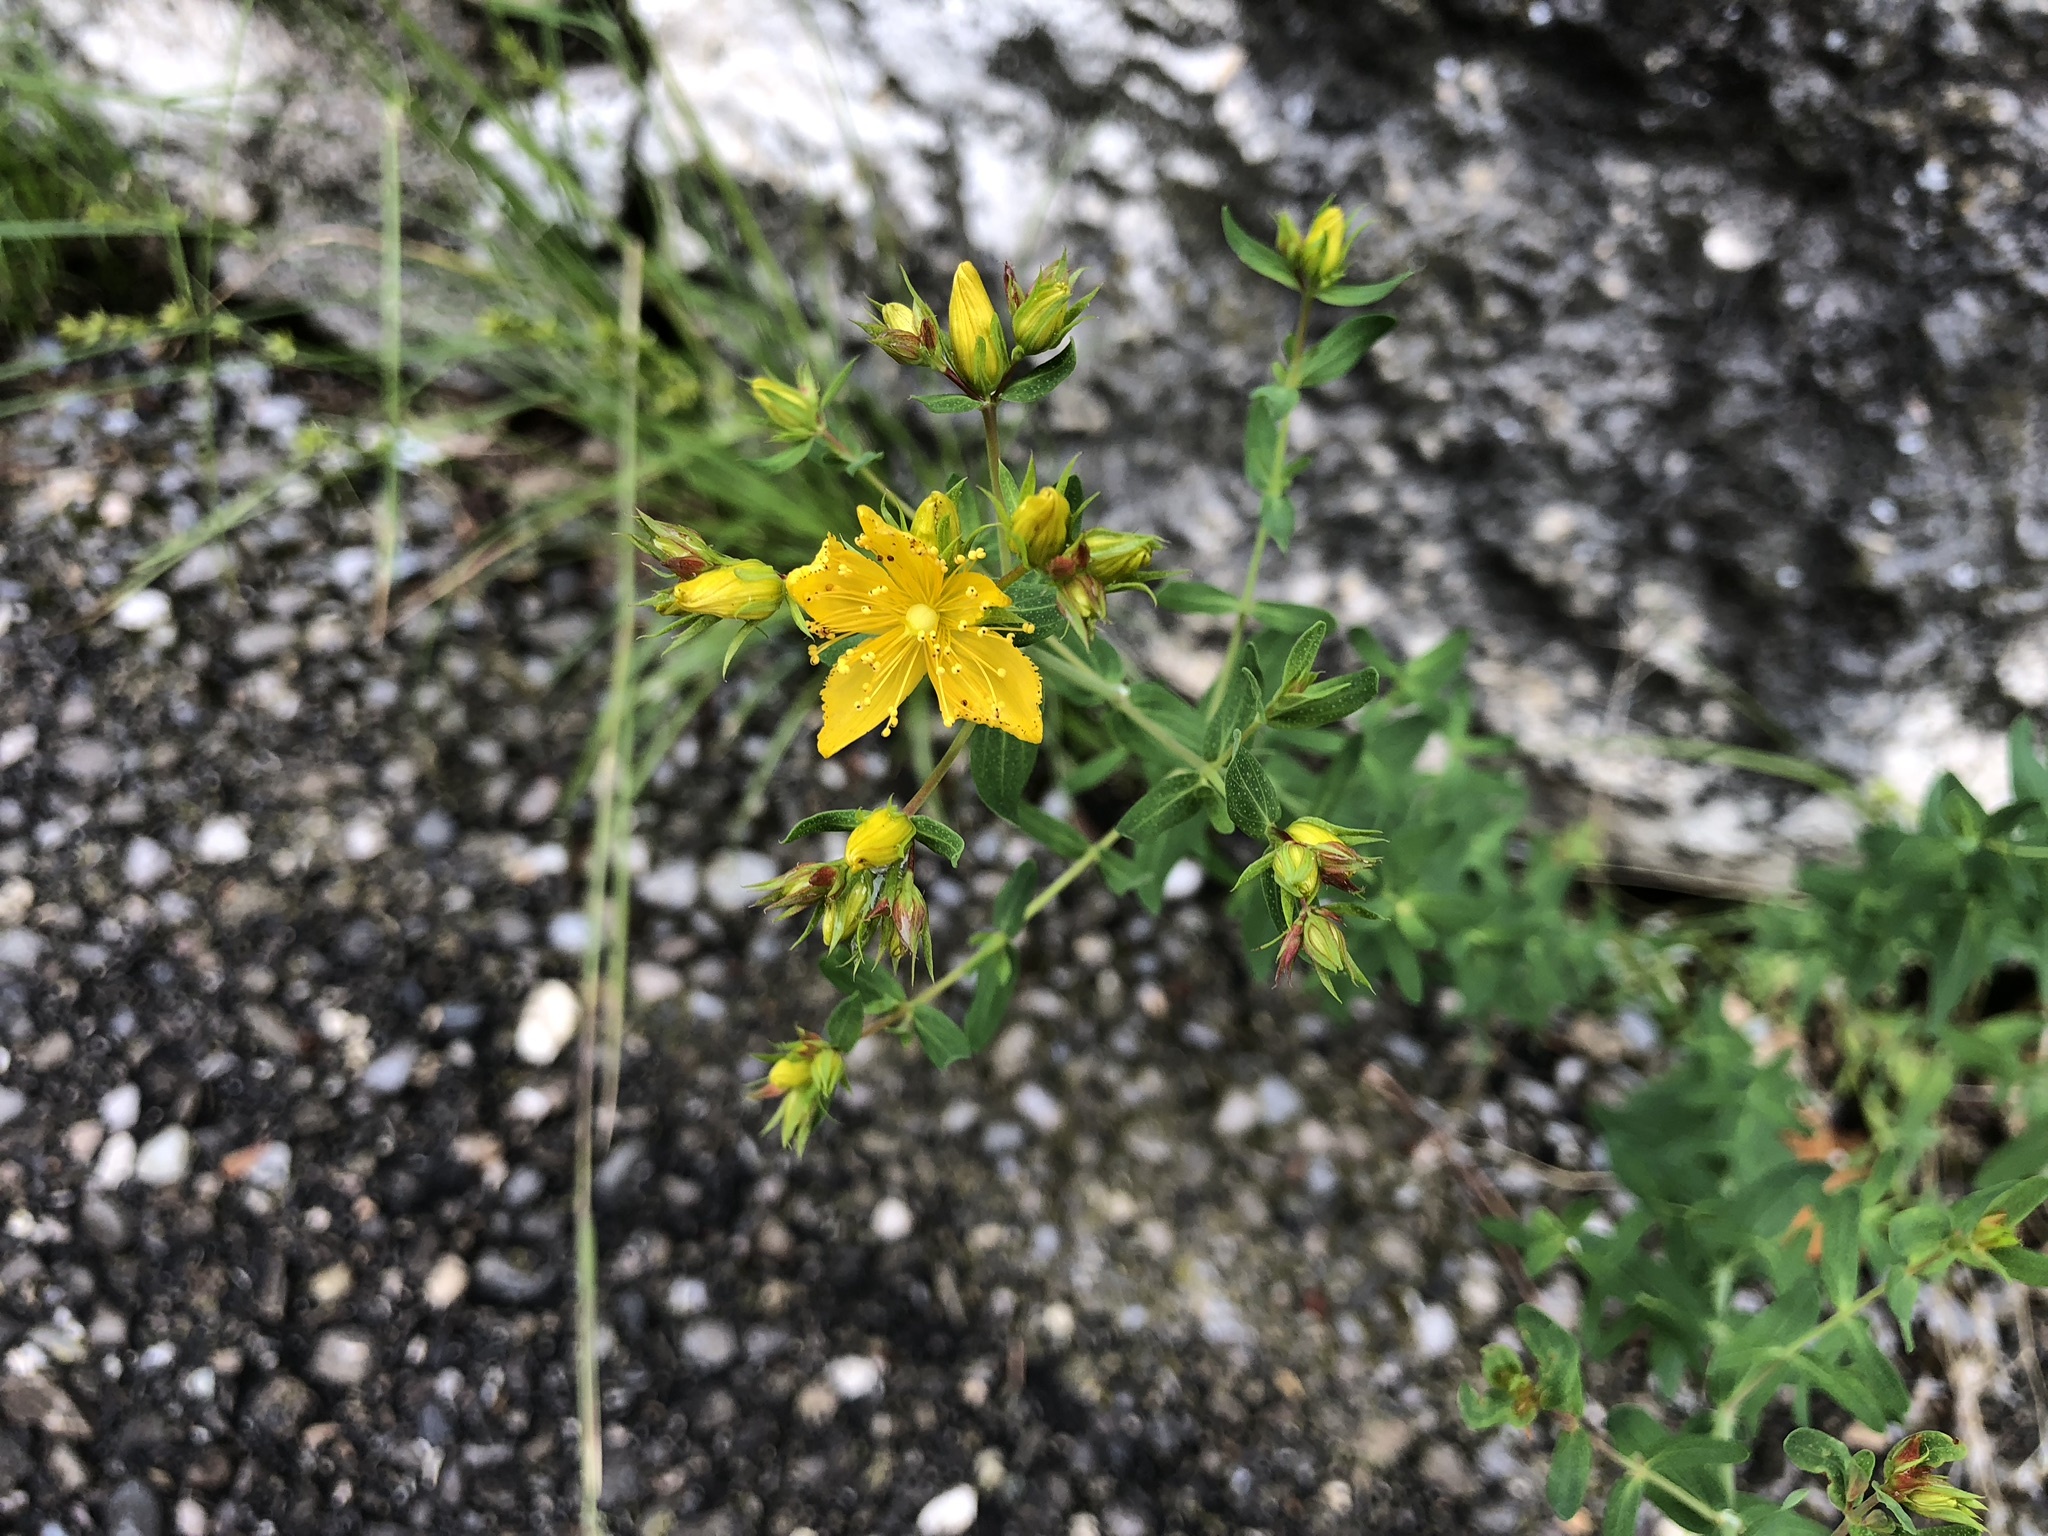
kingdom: Plantae
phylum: Tracheophyta
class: Magnoliopsida
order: Malpighiales
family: Hypericaceae
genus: Hypericum
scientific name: Hypericum perforatum
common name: Common st. johnswort
